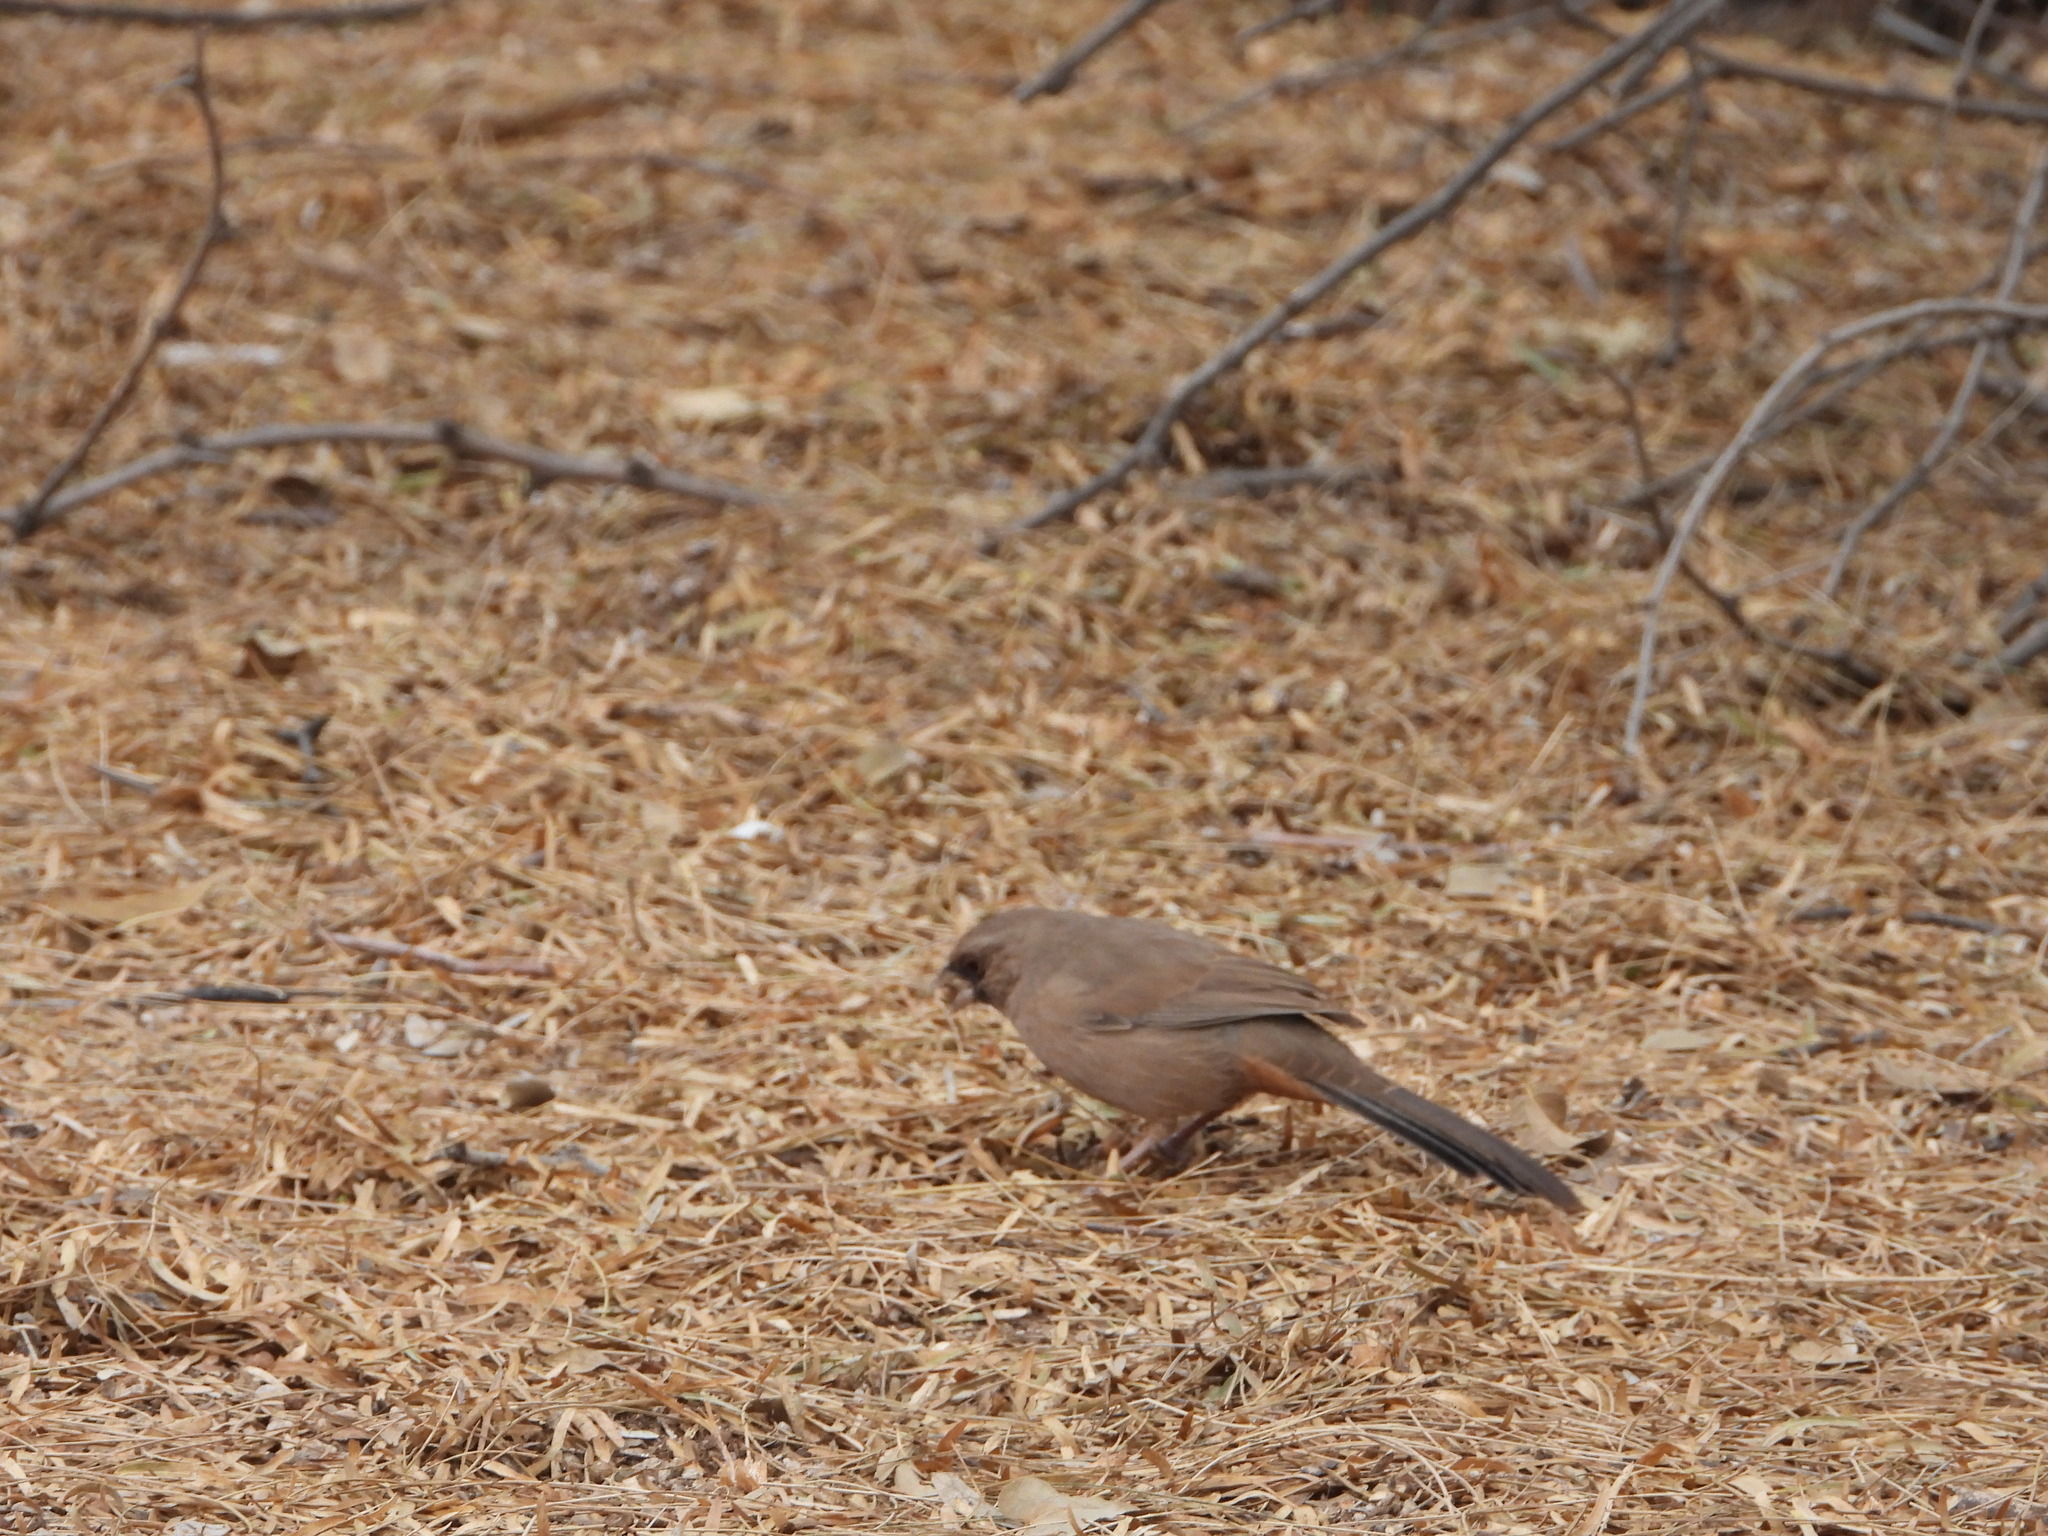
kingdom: Animalia
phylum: Chordata
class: Aves
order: Passeriformes
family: Passerellidae
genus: Melozone
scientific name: Melozone aberti
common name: Abert's towhee
